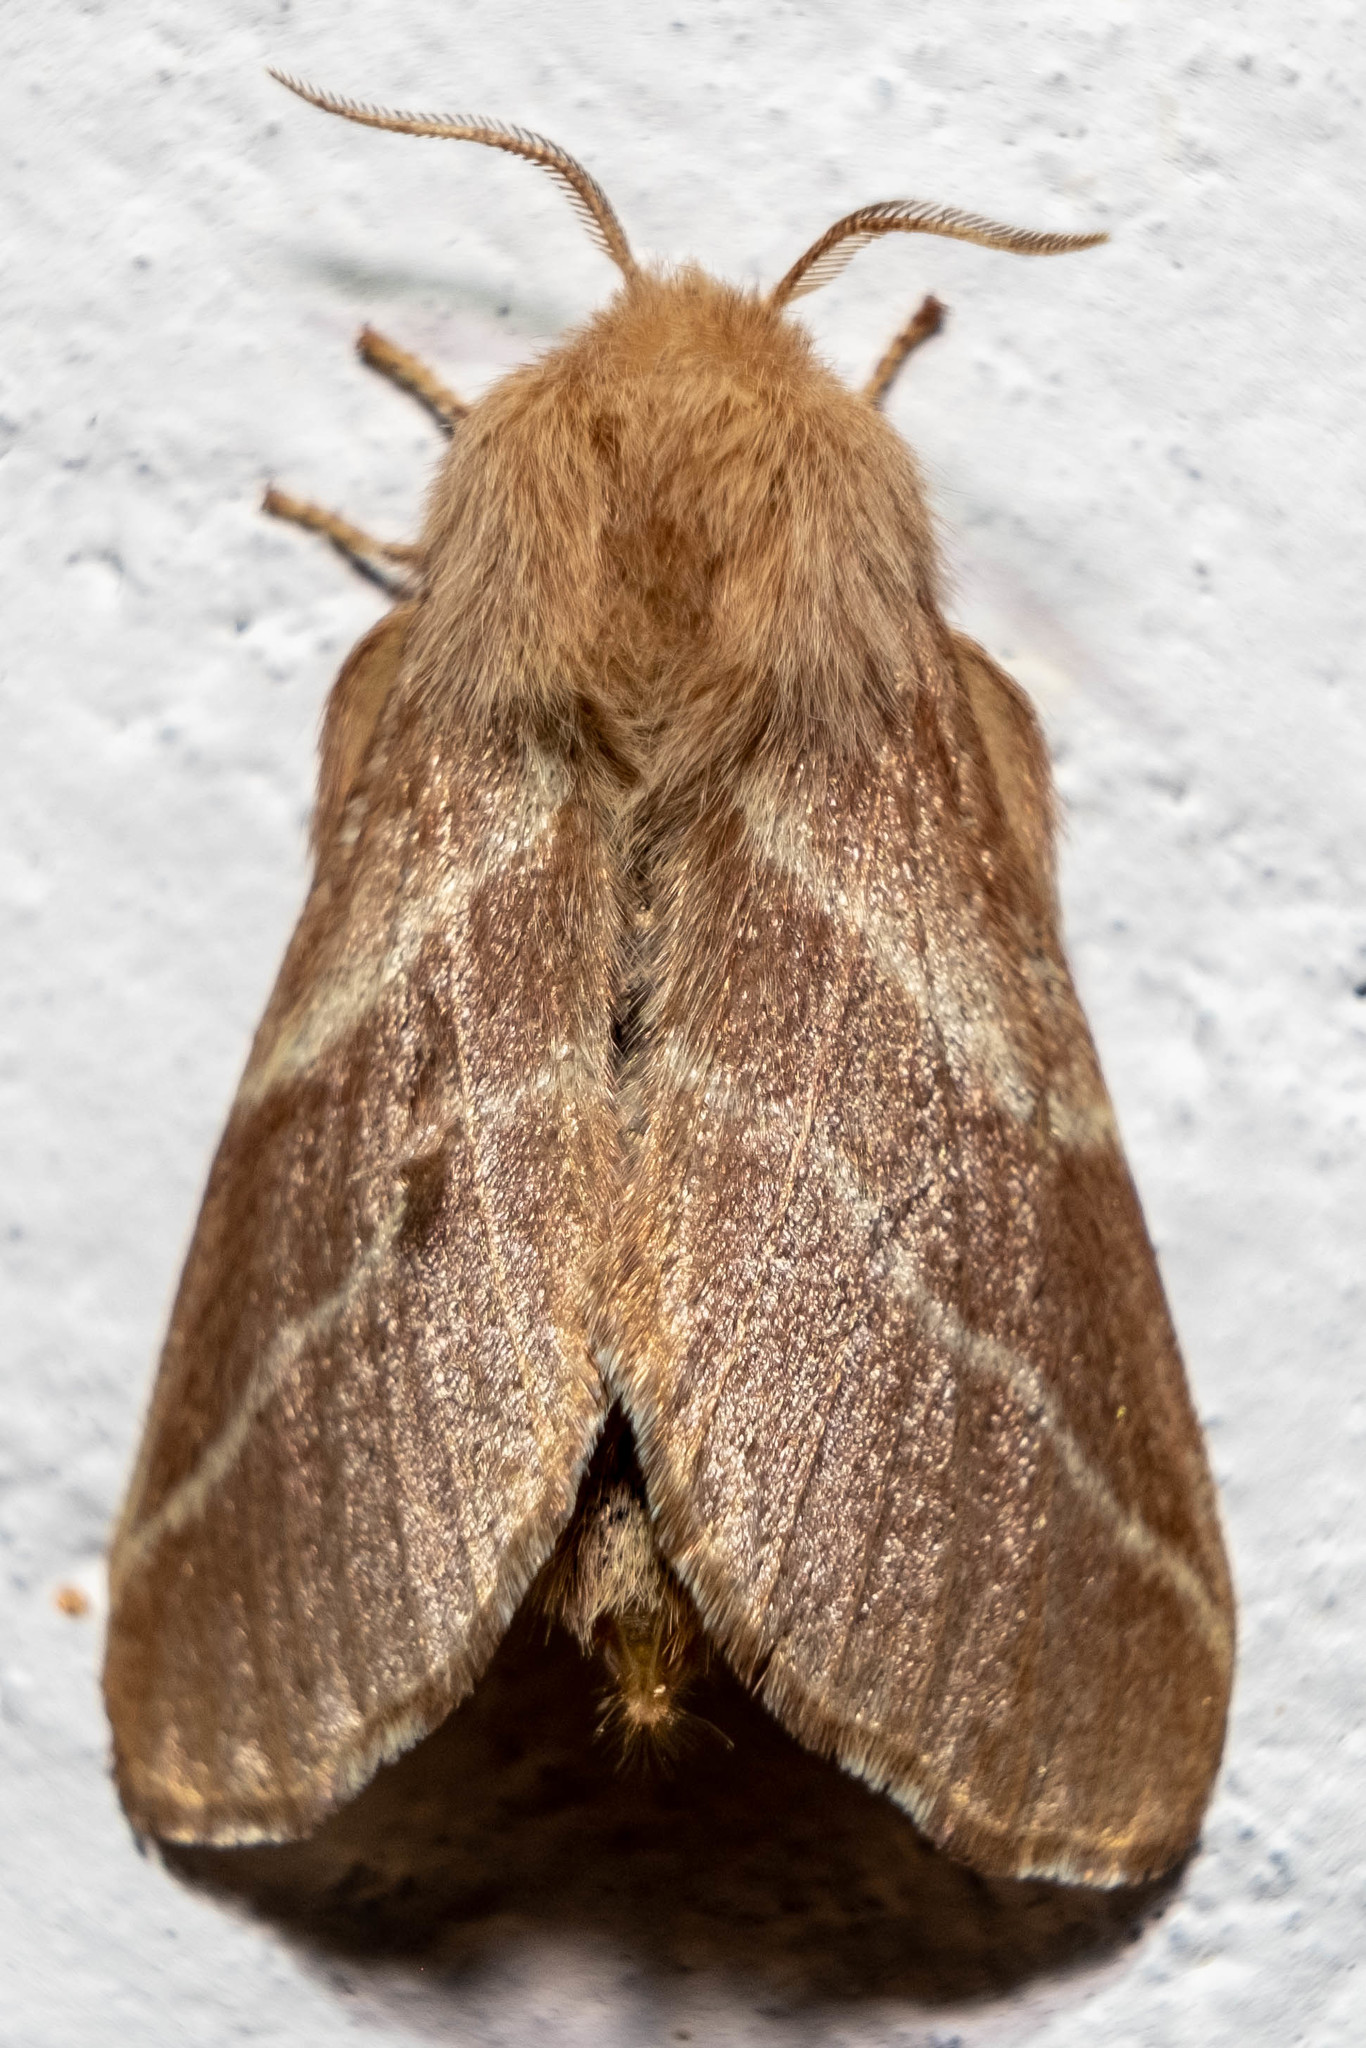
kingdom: Animalia
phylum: Arthropoda
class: Insecta
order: Lepidoptera
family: Lasiocampidae
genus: Malacosoma
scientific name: Malacosoma americana
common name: Eastern tent caterpillar moth
